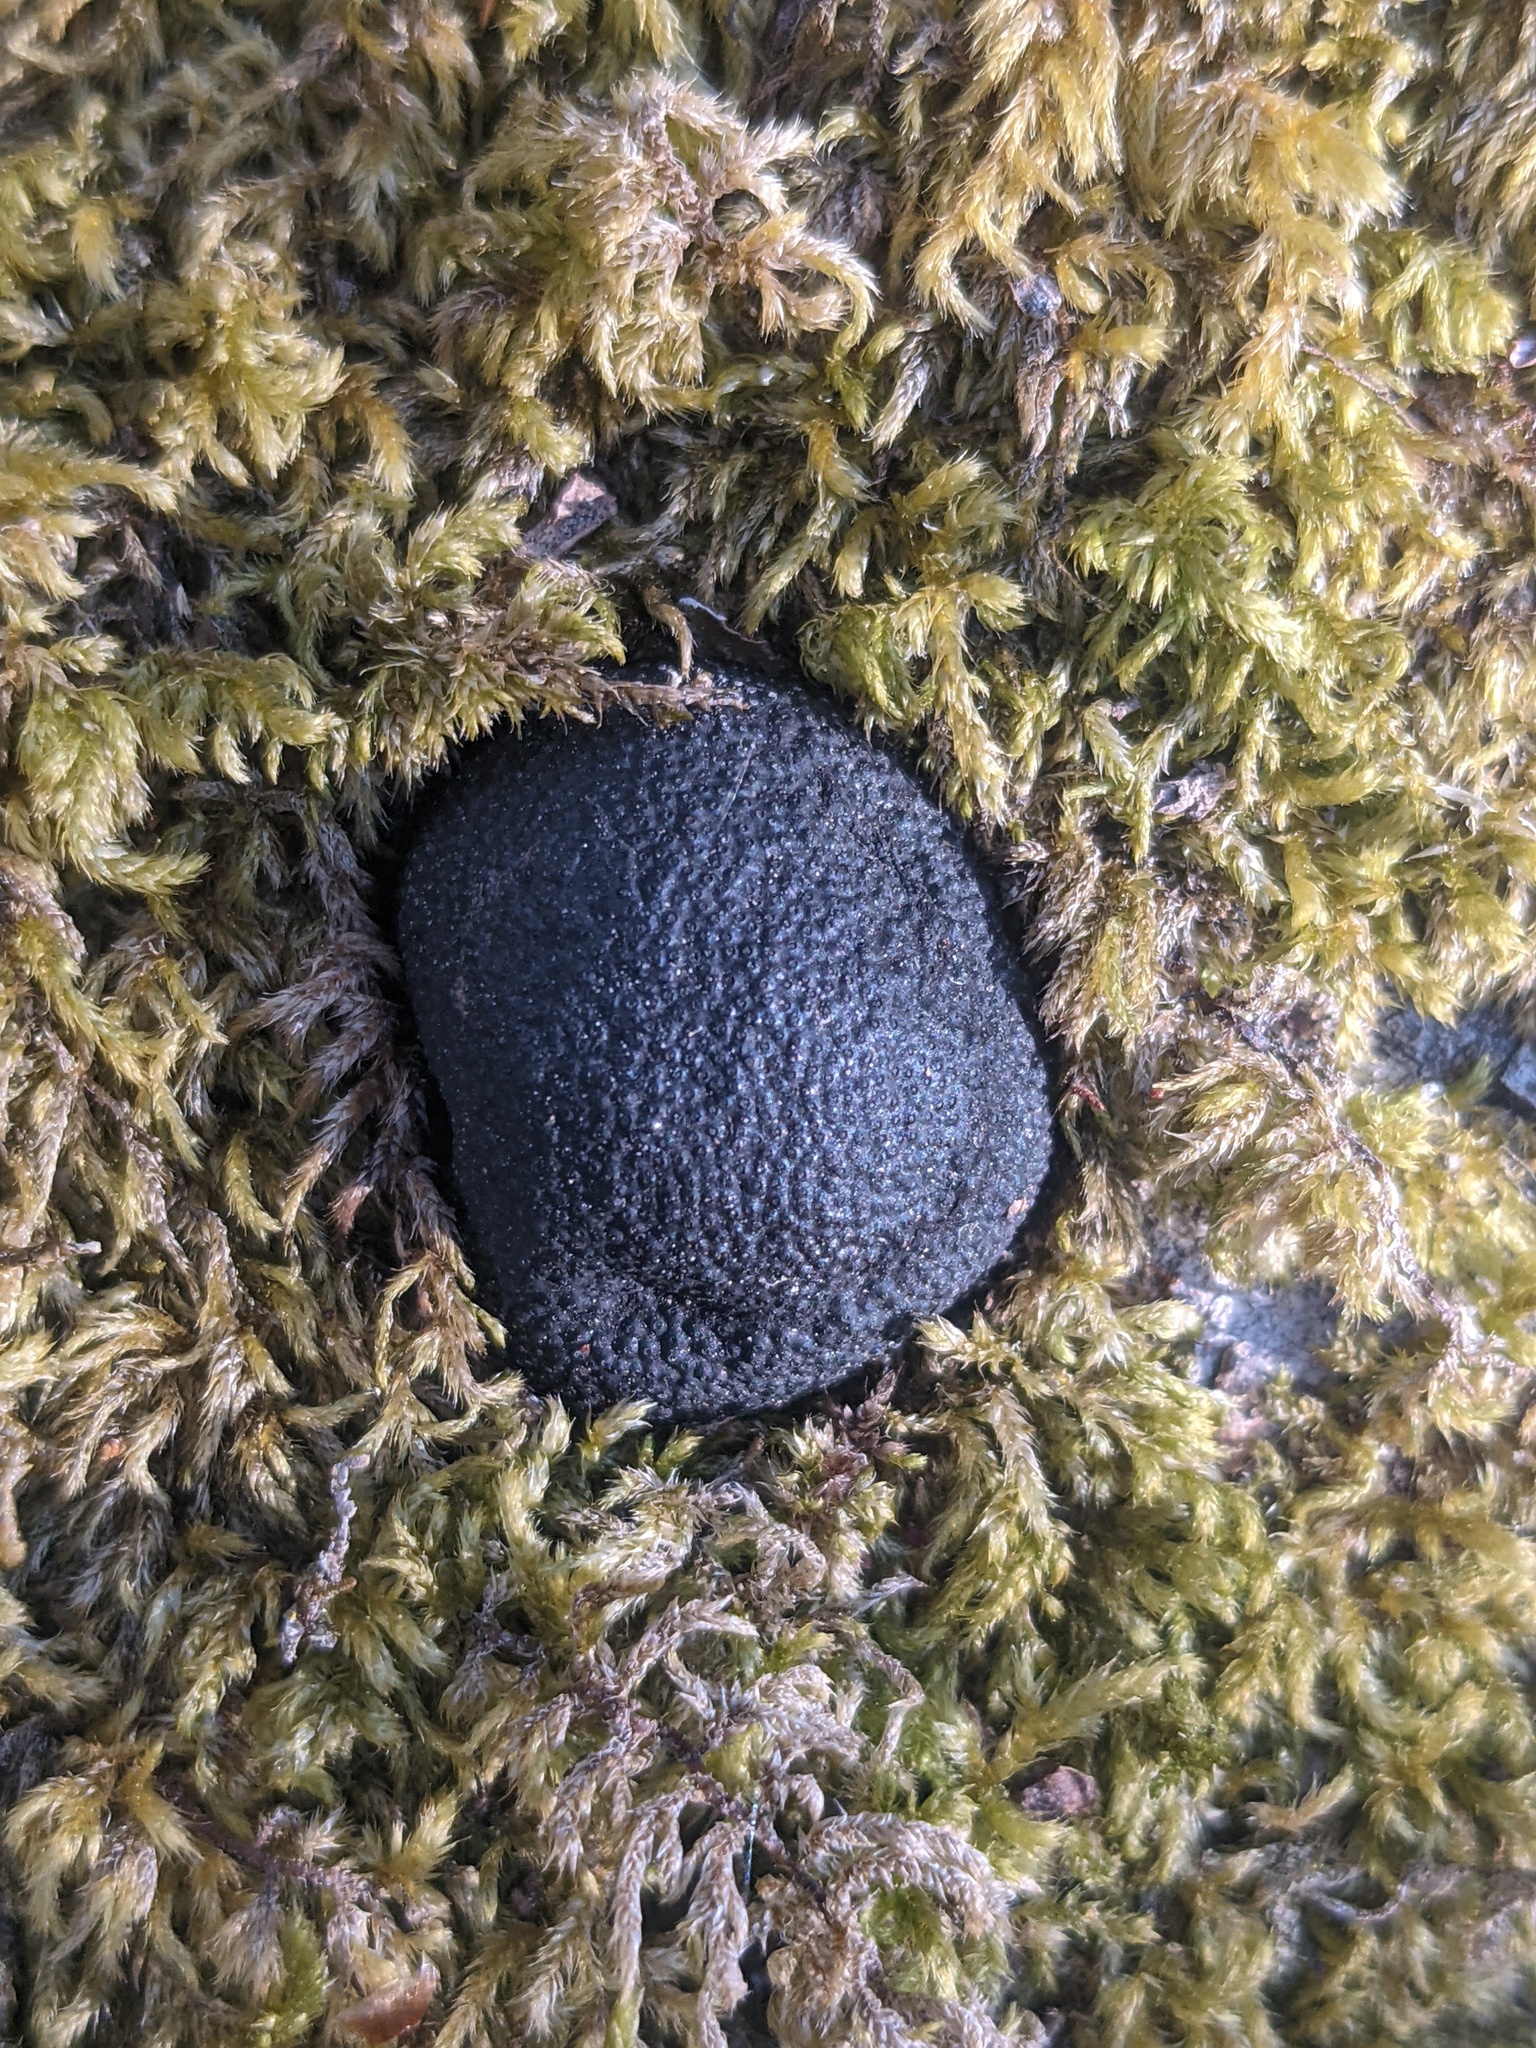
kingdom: Fungi
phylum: Ascomycota
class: Sordariomycetes
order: Xylariales
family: Hypoxylaceae
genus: Annulohypoxylon
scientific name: Annulohypoxylon thouarsianum
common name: Cramp balls
